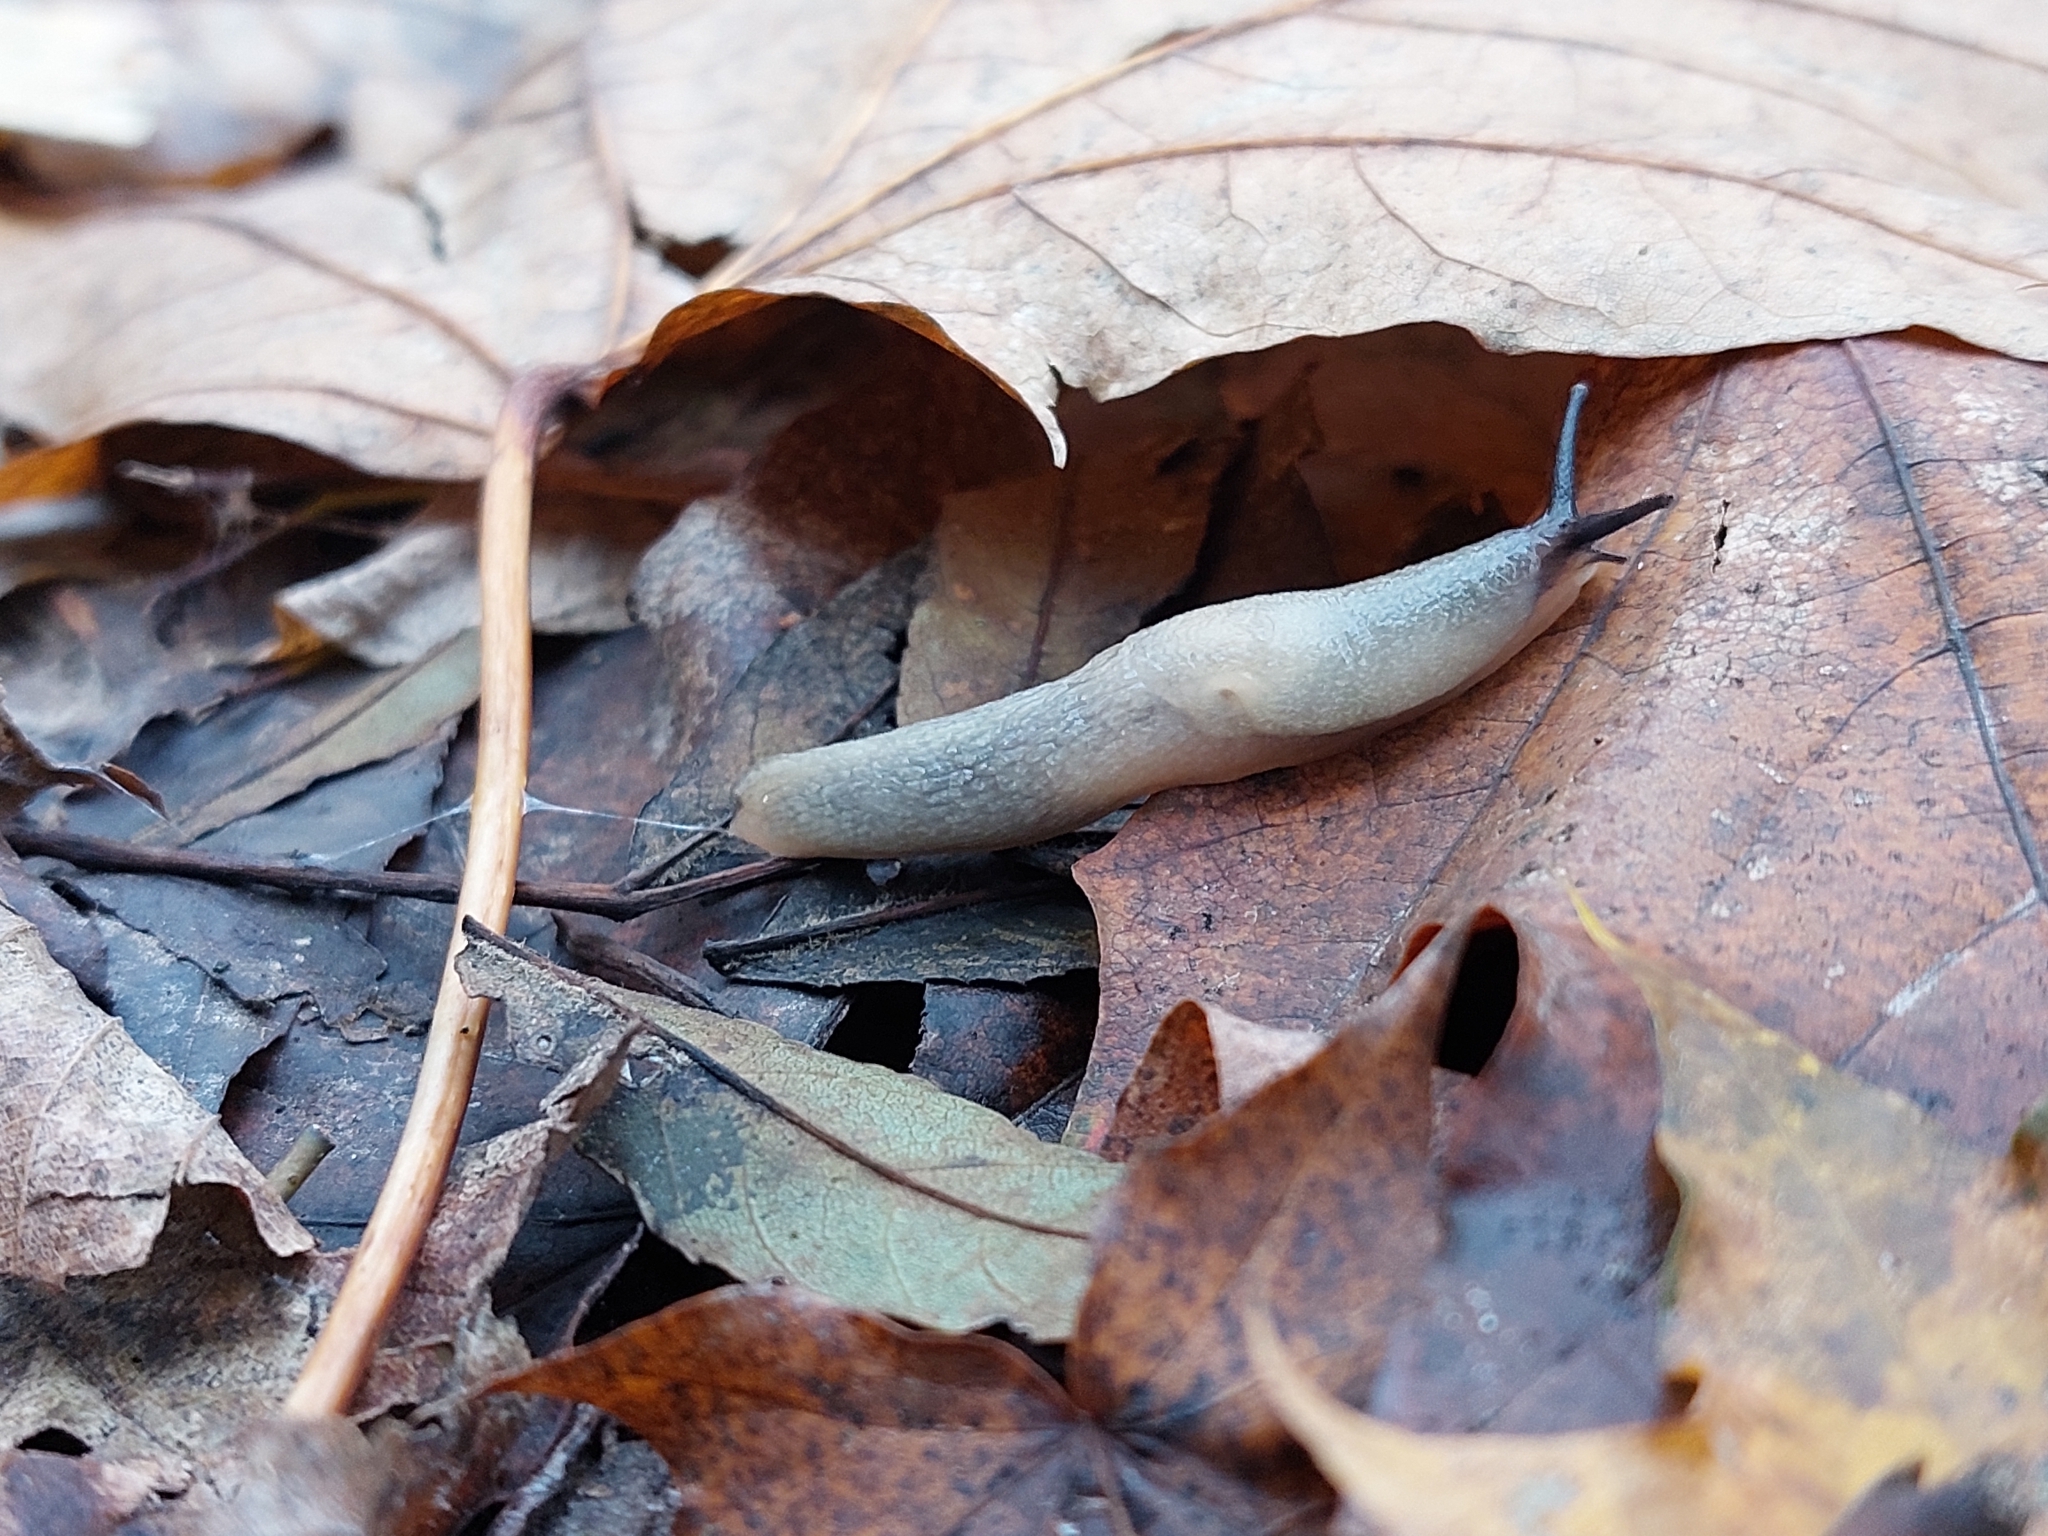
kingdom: Animalia
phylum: Mollusca
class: Gastropoda
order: Stylommatophora
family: Agriolimacidae
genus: Krynickillus
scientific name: Krynickillus melanocephalus
